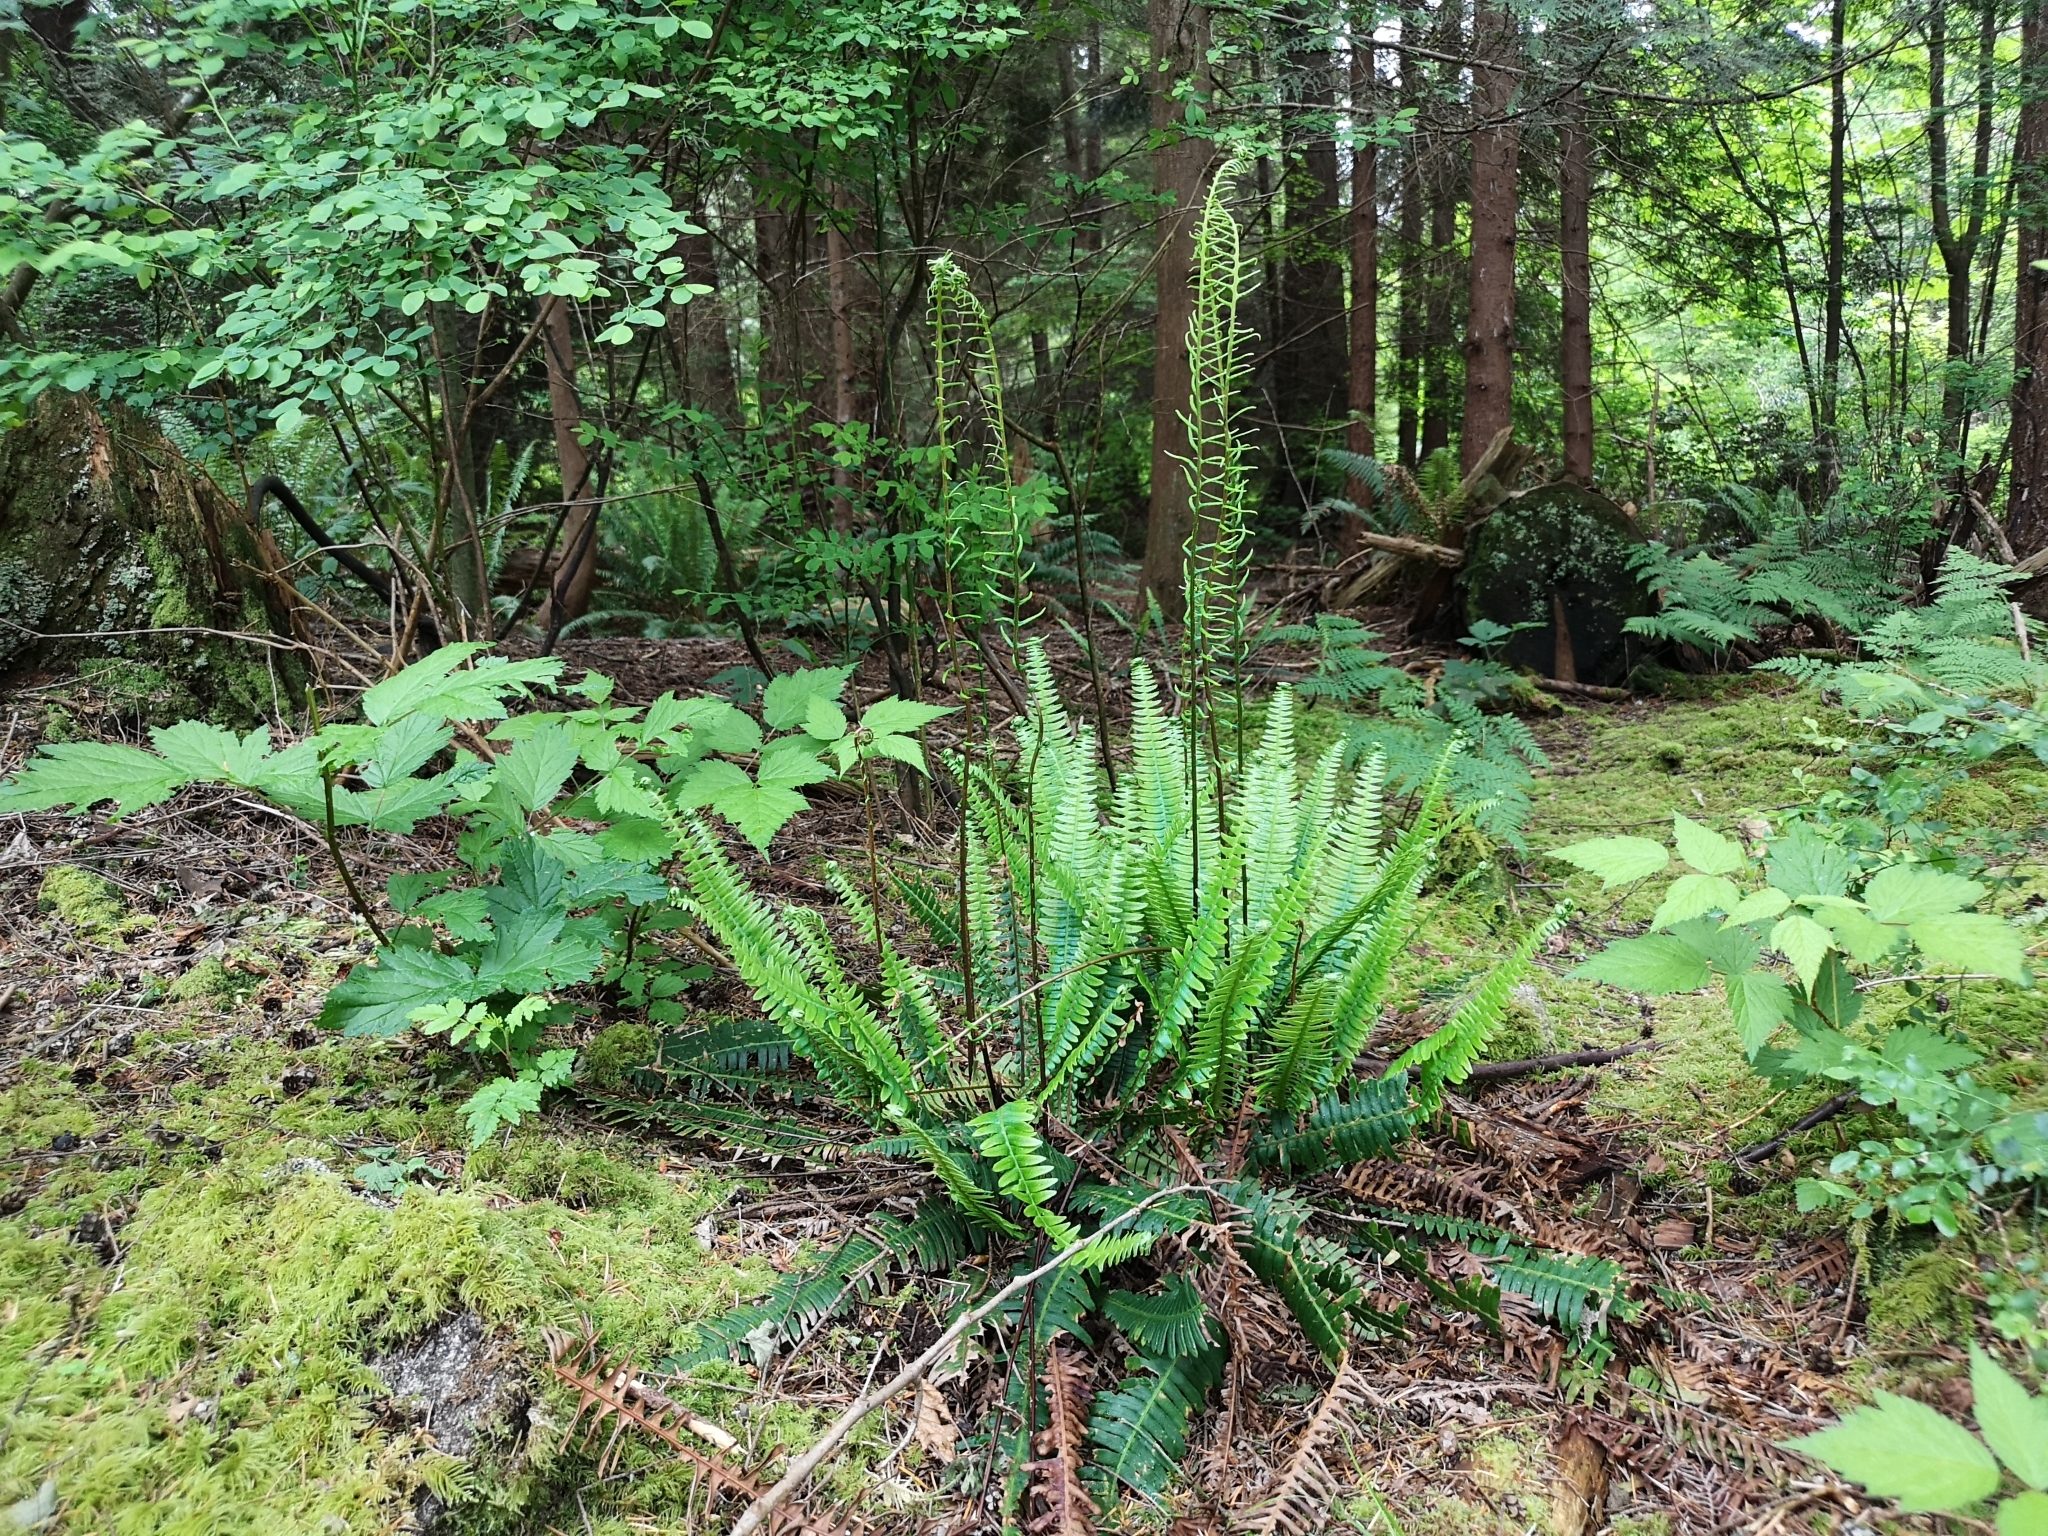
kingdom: Plantae
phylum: Tracheophyta
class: Polypodiopsida
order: Polypodiales
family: Blechnaceae
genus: Struthiopteris
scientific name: Struthiopteris spicant
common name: Deer fern
